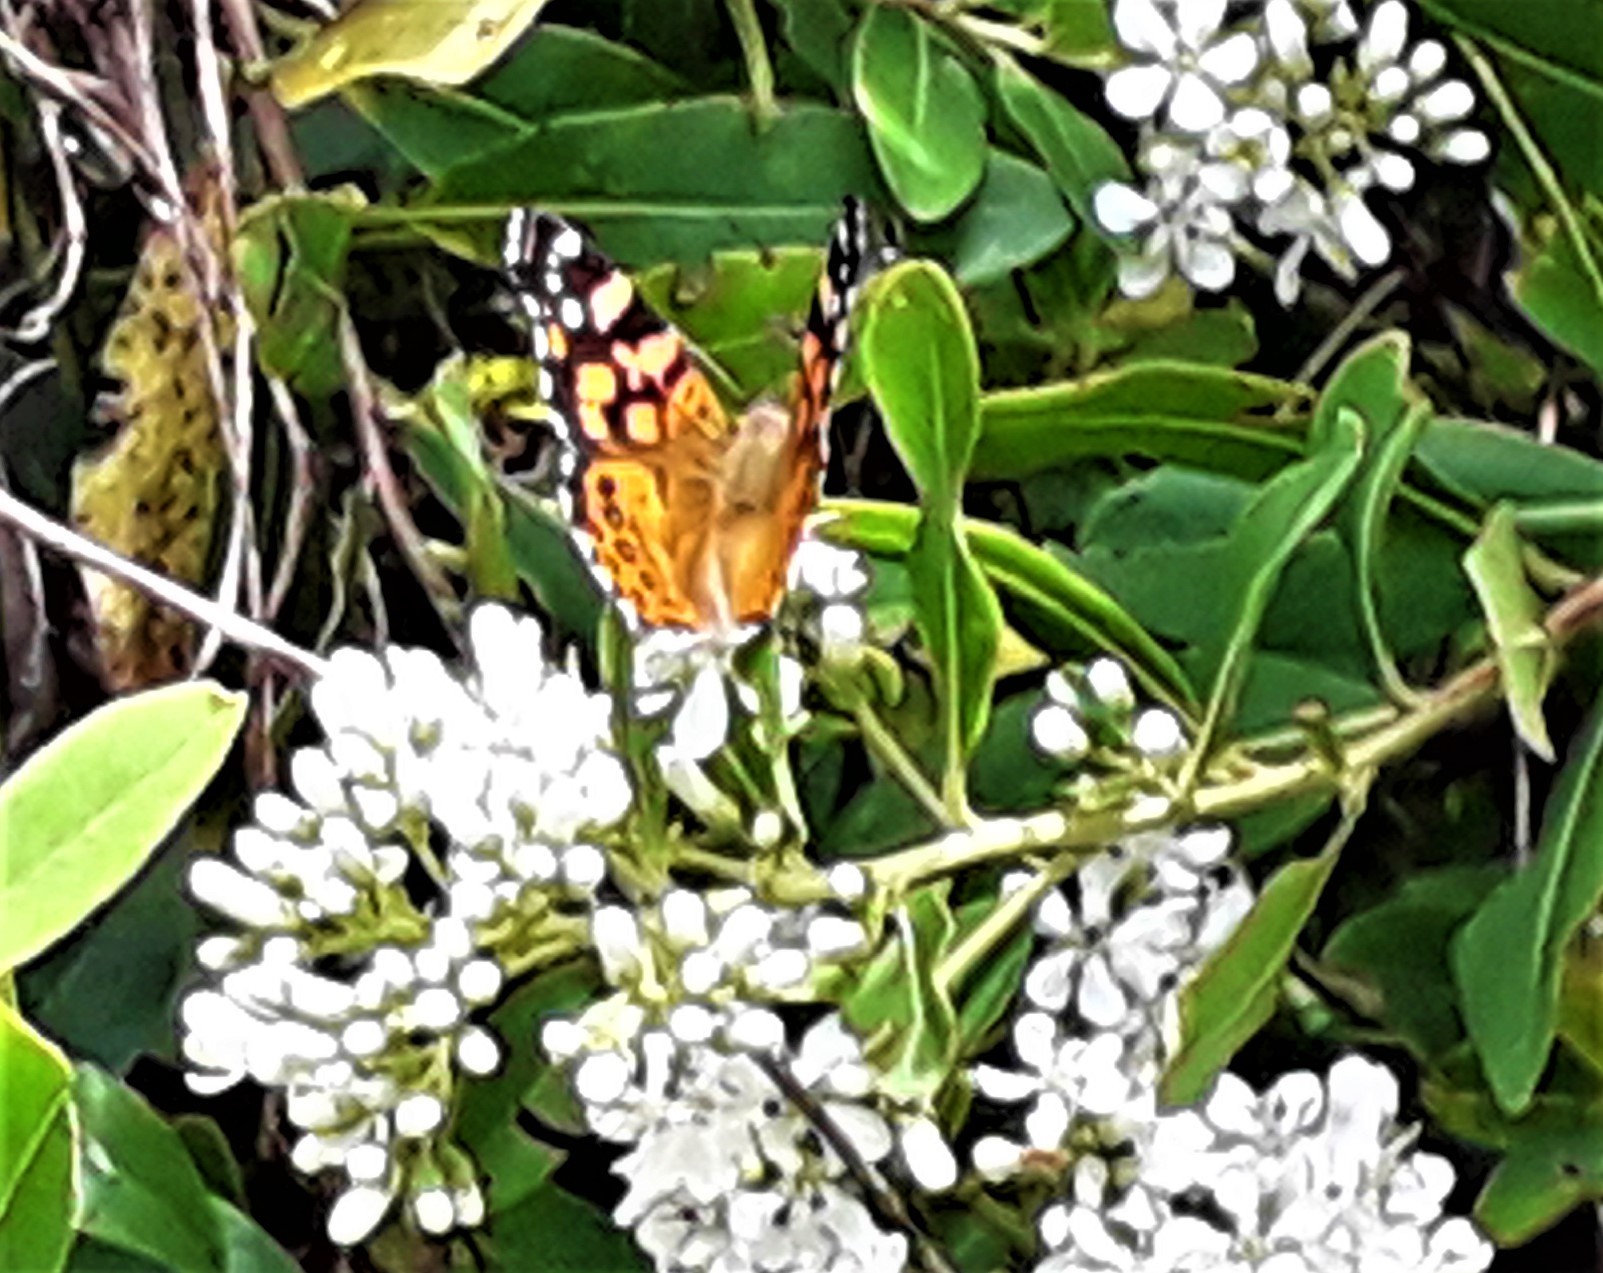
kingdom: Animalia
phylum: Arthropoda
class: Insecta
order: Lepidoptera
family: Nymphalidae
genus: Vanessa
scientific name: Vanessa carye
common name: Subtropical lady
